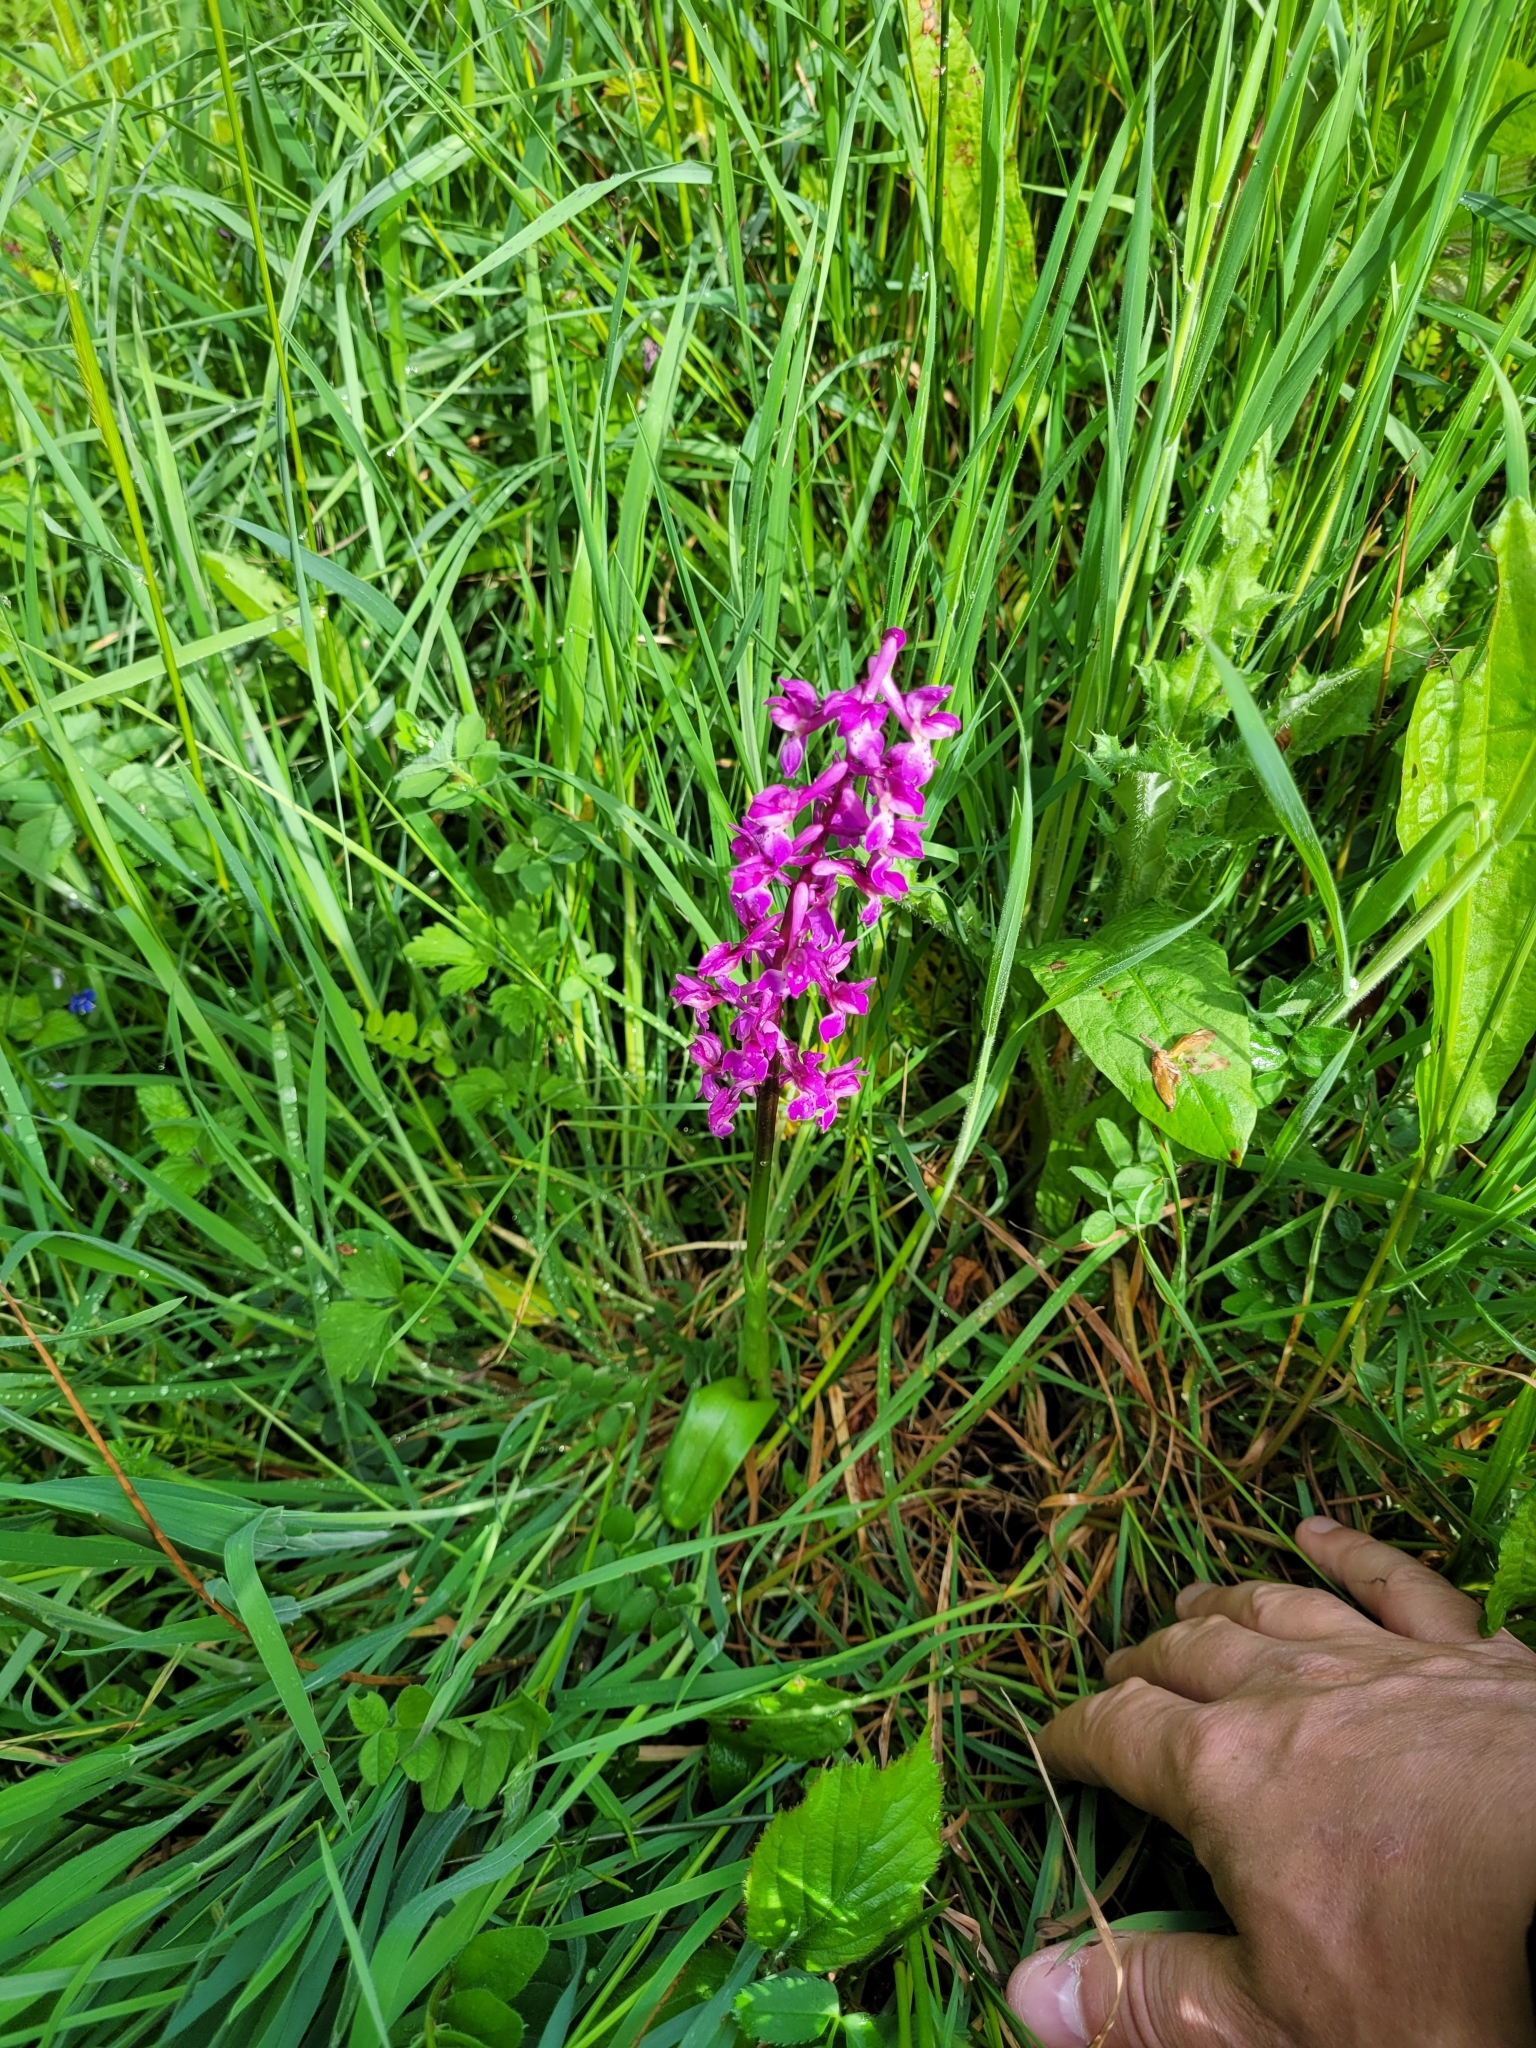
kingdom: Plantae
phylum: Tracheophyta
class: Liliopsida
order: Asparagales
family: Orchidaceae
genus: Orchis
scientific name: Orchis mascula
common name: Early-purple orchid
